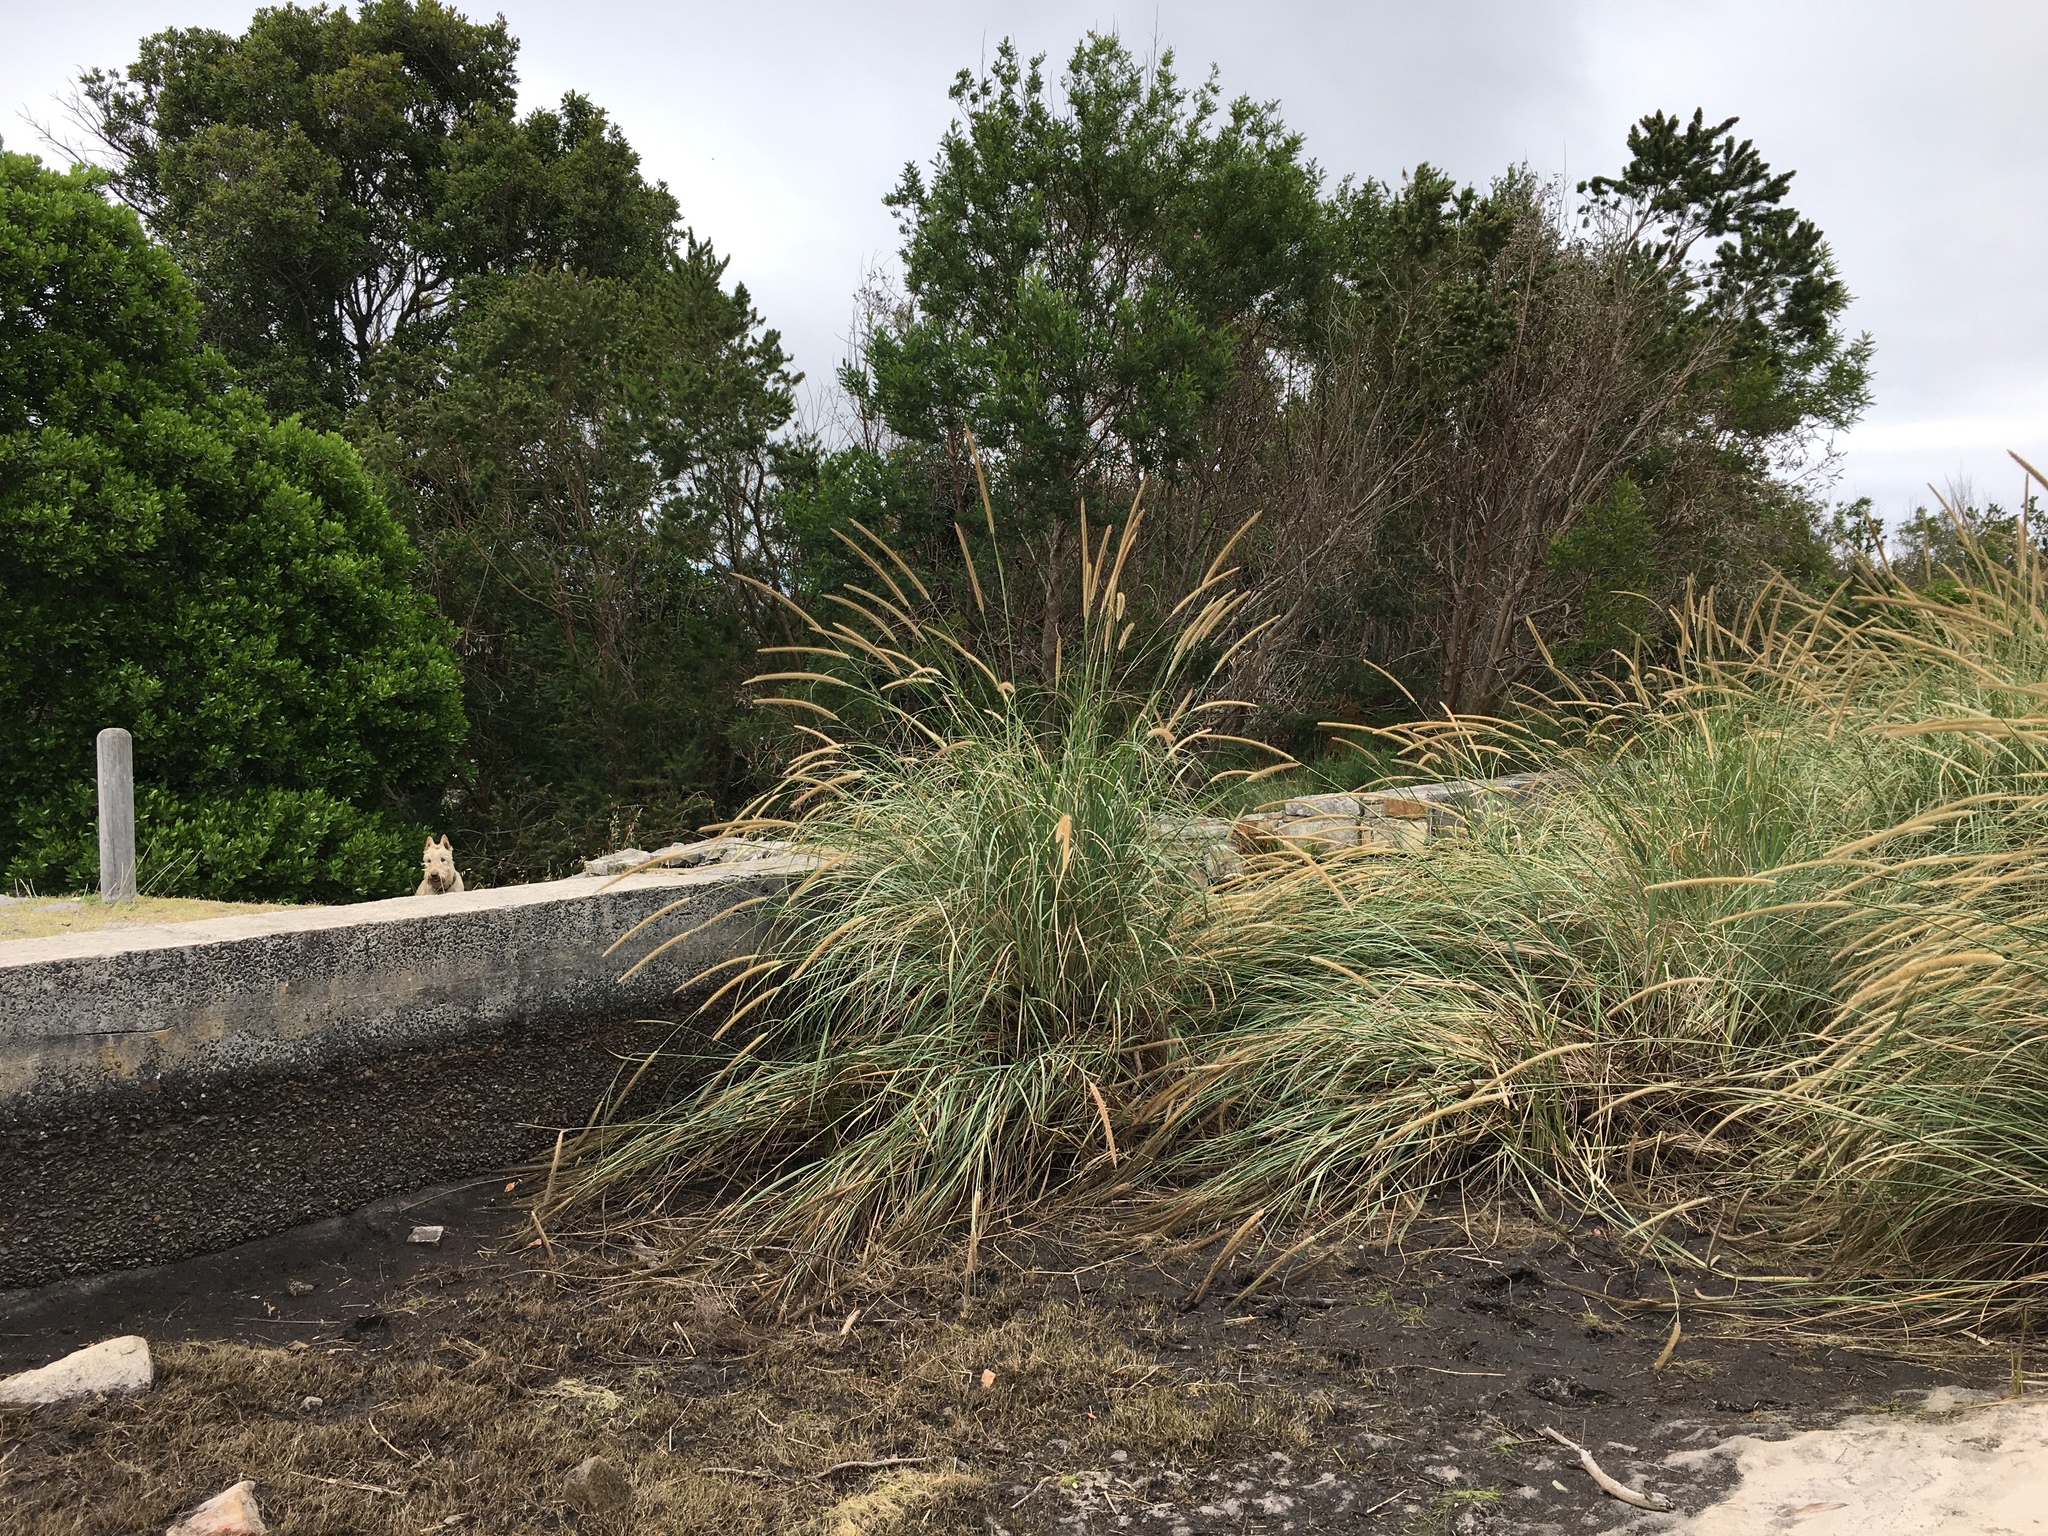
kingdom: Plantae
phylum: Tracheophyta
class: Liliopsida
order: Poales
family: Poaceae
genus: Cenchrus
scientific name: Cenchrus caudatus
